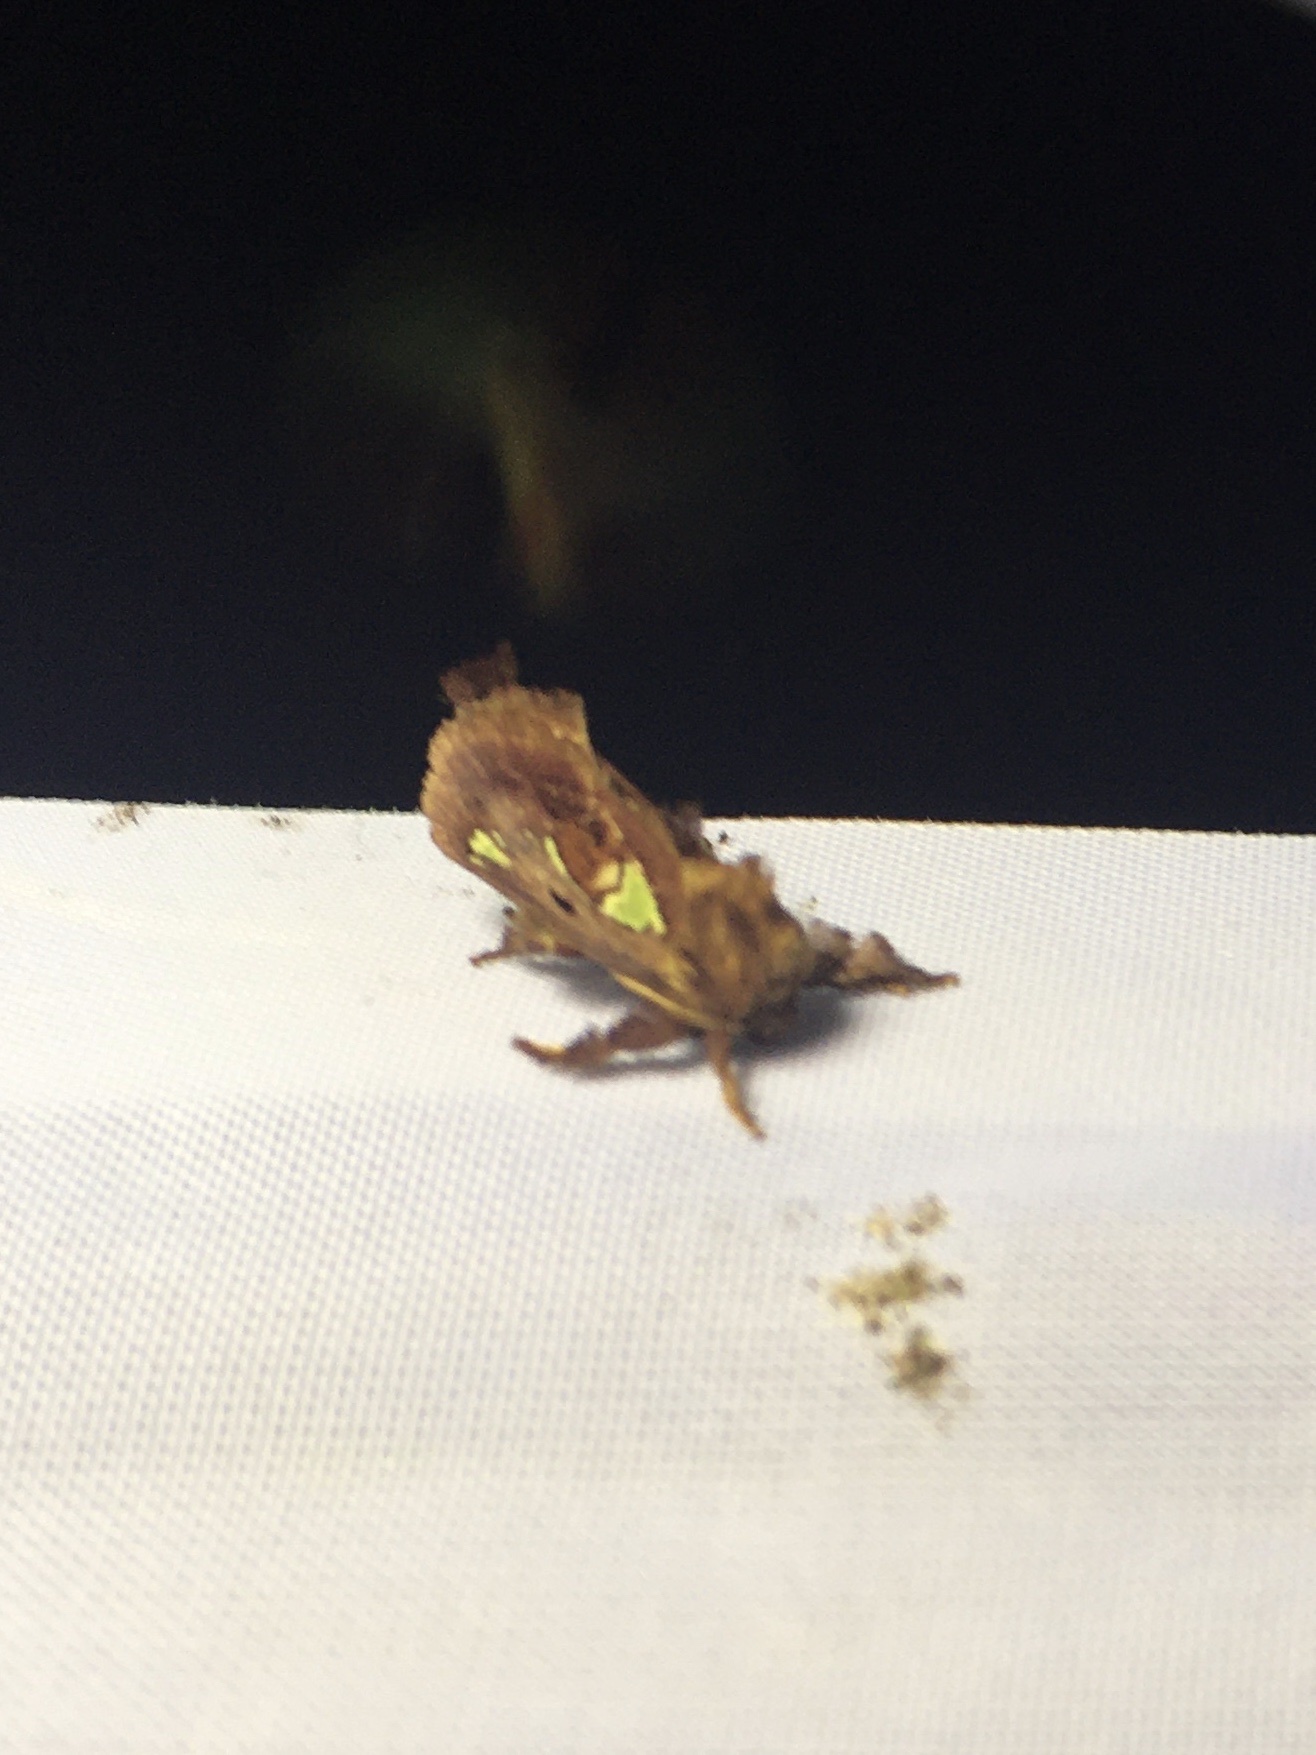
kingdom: Animalia
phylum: Arthropoda
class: Insecta
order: Lepidoptera
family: Limacodidae
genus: Euclea
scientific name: Euclea delphinii
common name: Spiny oak-slug moth
